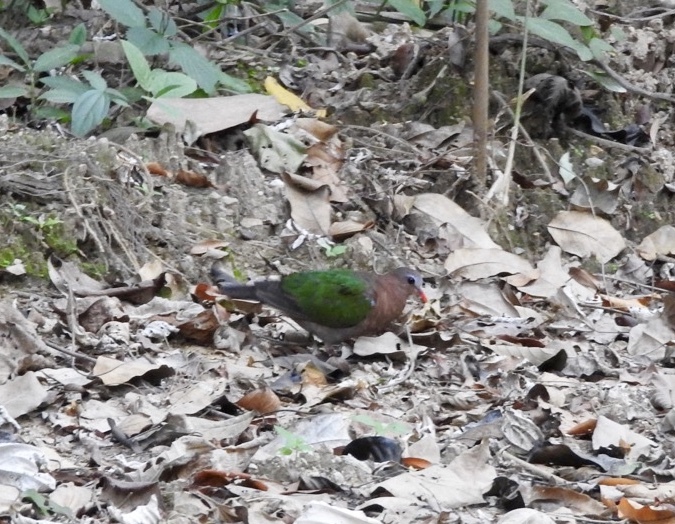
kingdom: Animalia
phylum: Chordata
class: Aves
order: Columbiformes
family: Columbidae
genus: Chalcophaps
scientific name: Chalcophaps indica
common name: Common emerald dove
